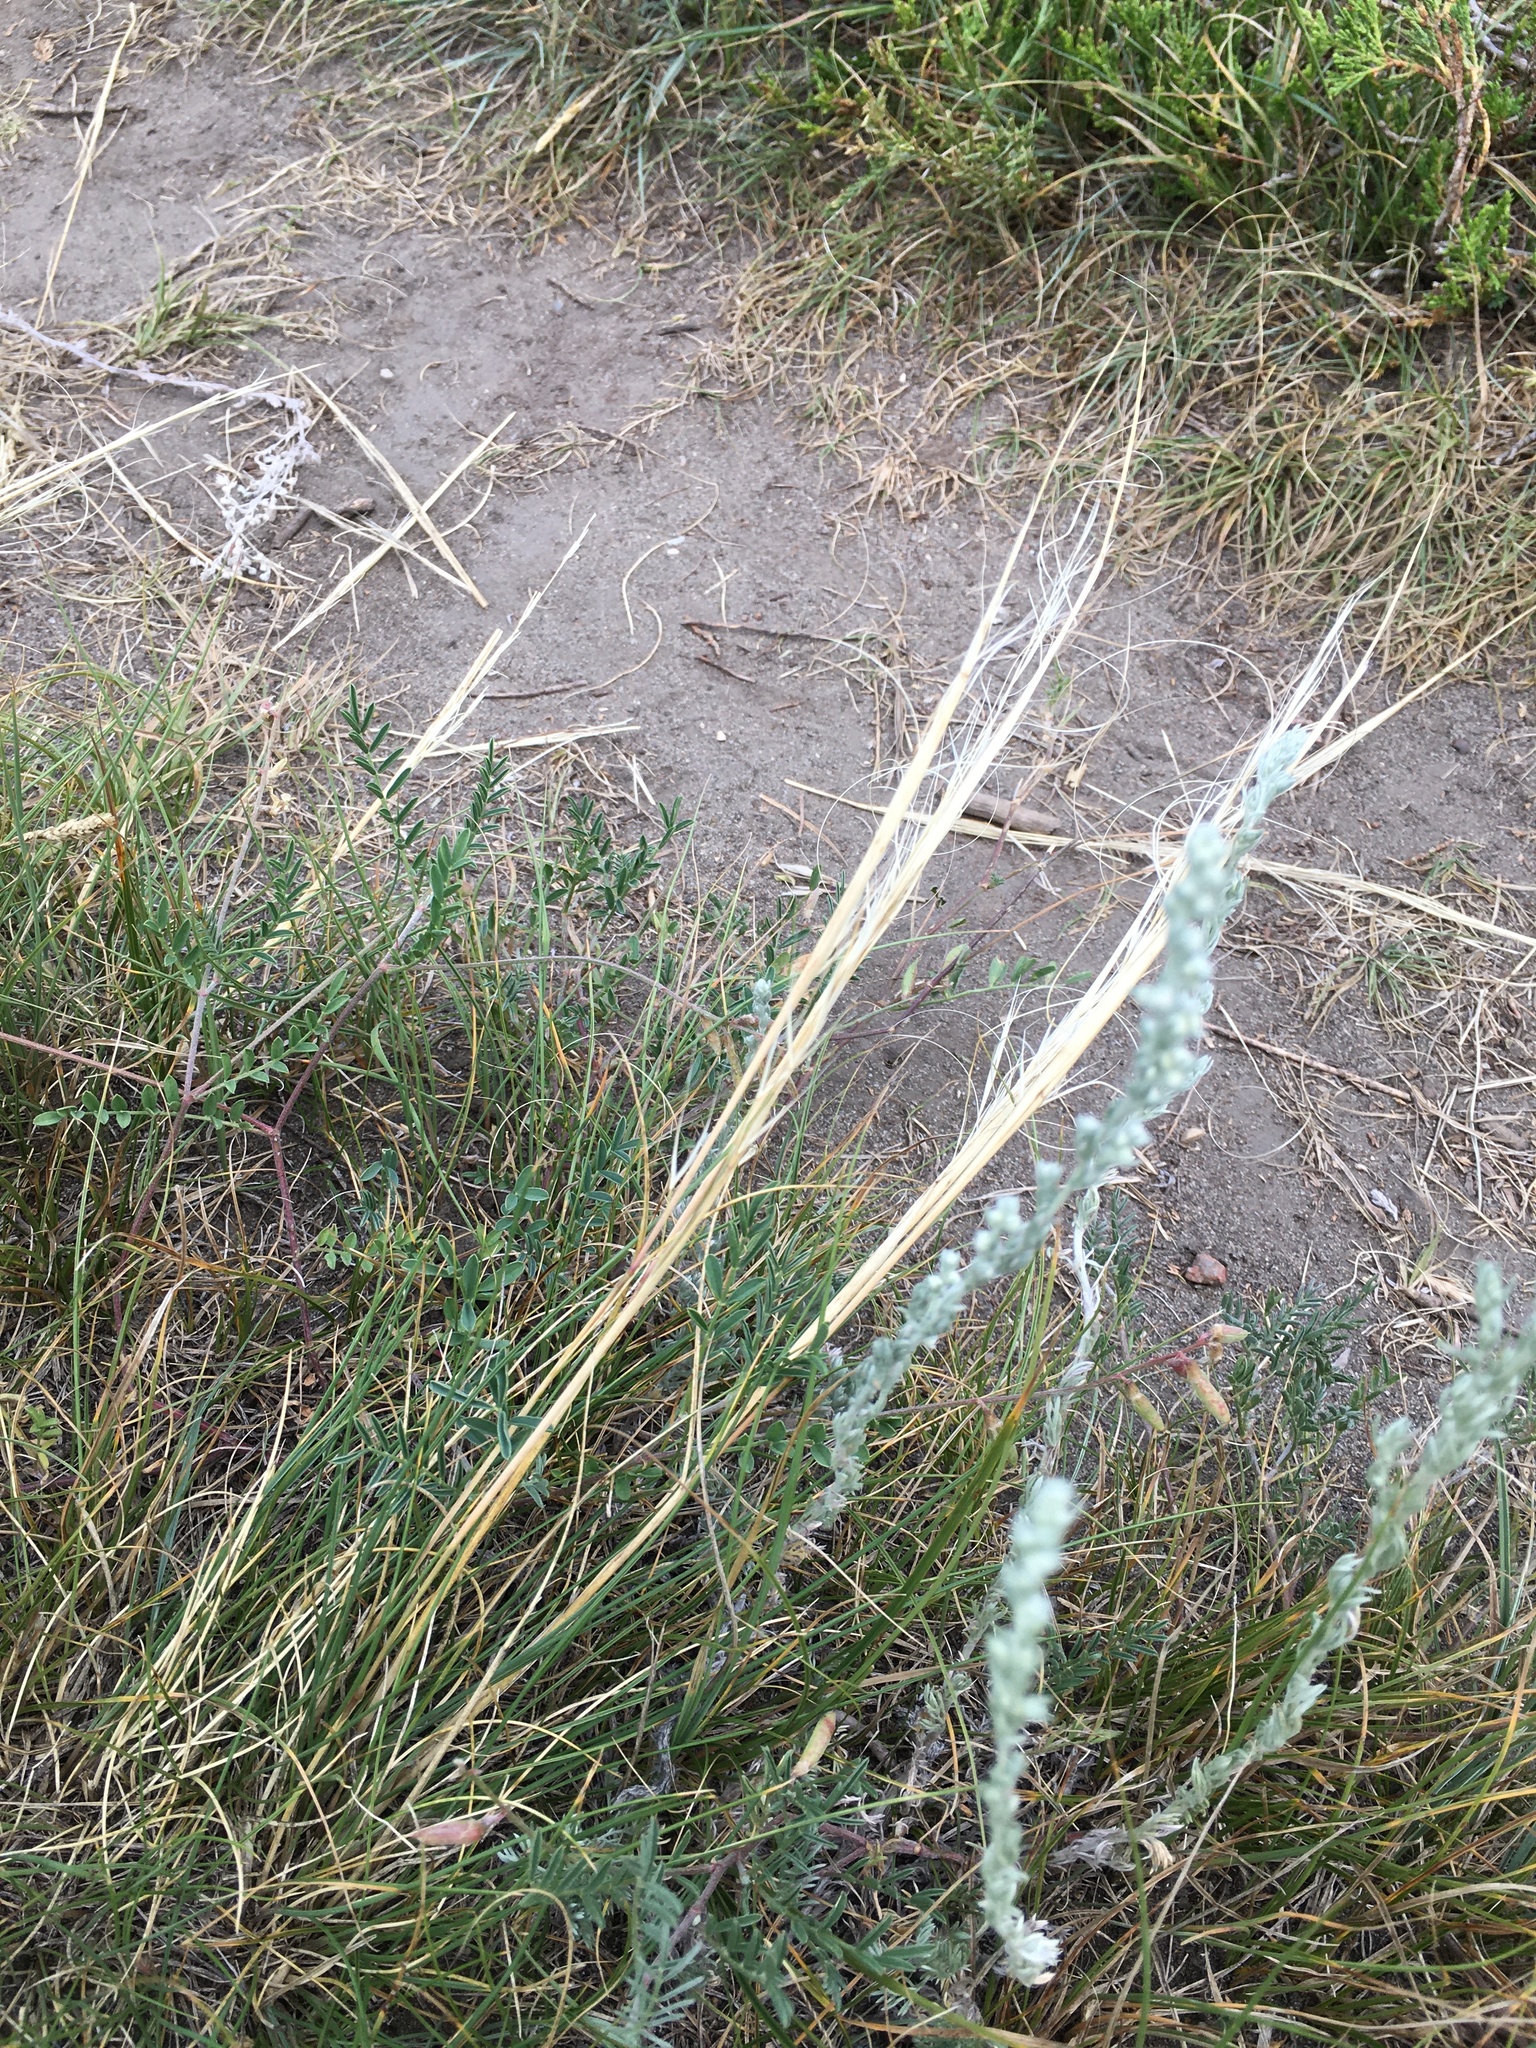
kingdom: Plantae
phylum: Tracheophyta
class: Liliopsida
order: Poales
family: Poaceae
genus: Hesperostipa
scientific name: Hesperostipa comata
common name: Needle-and-thread grass
